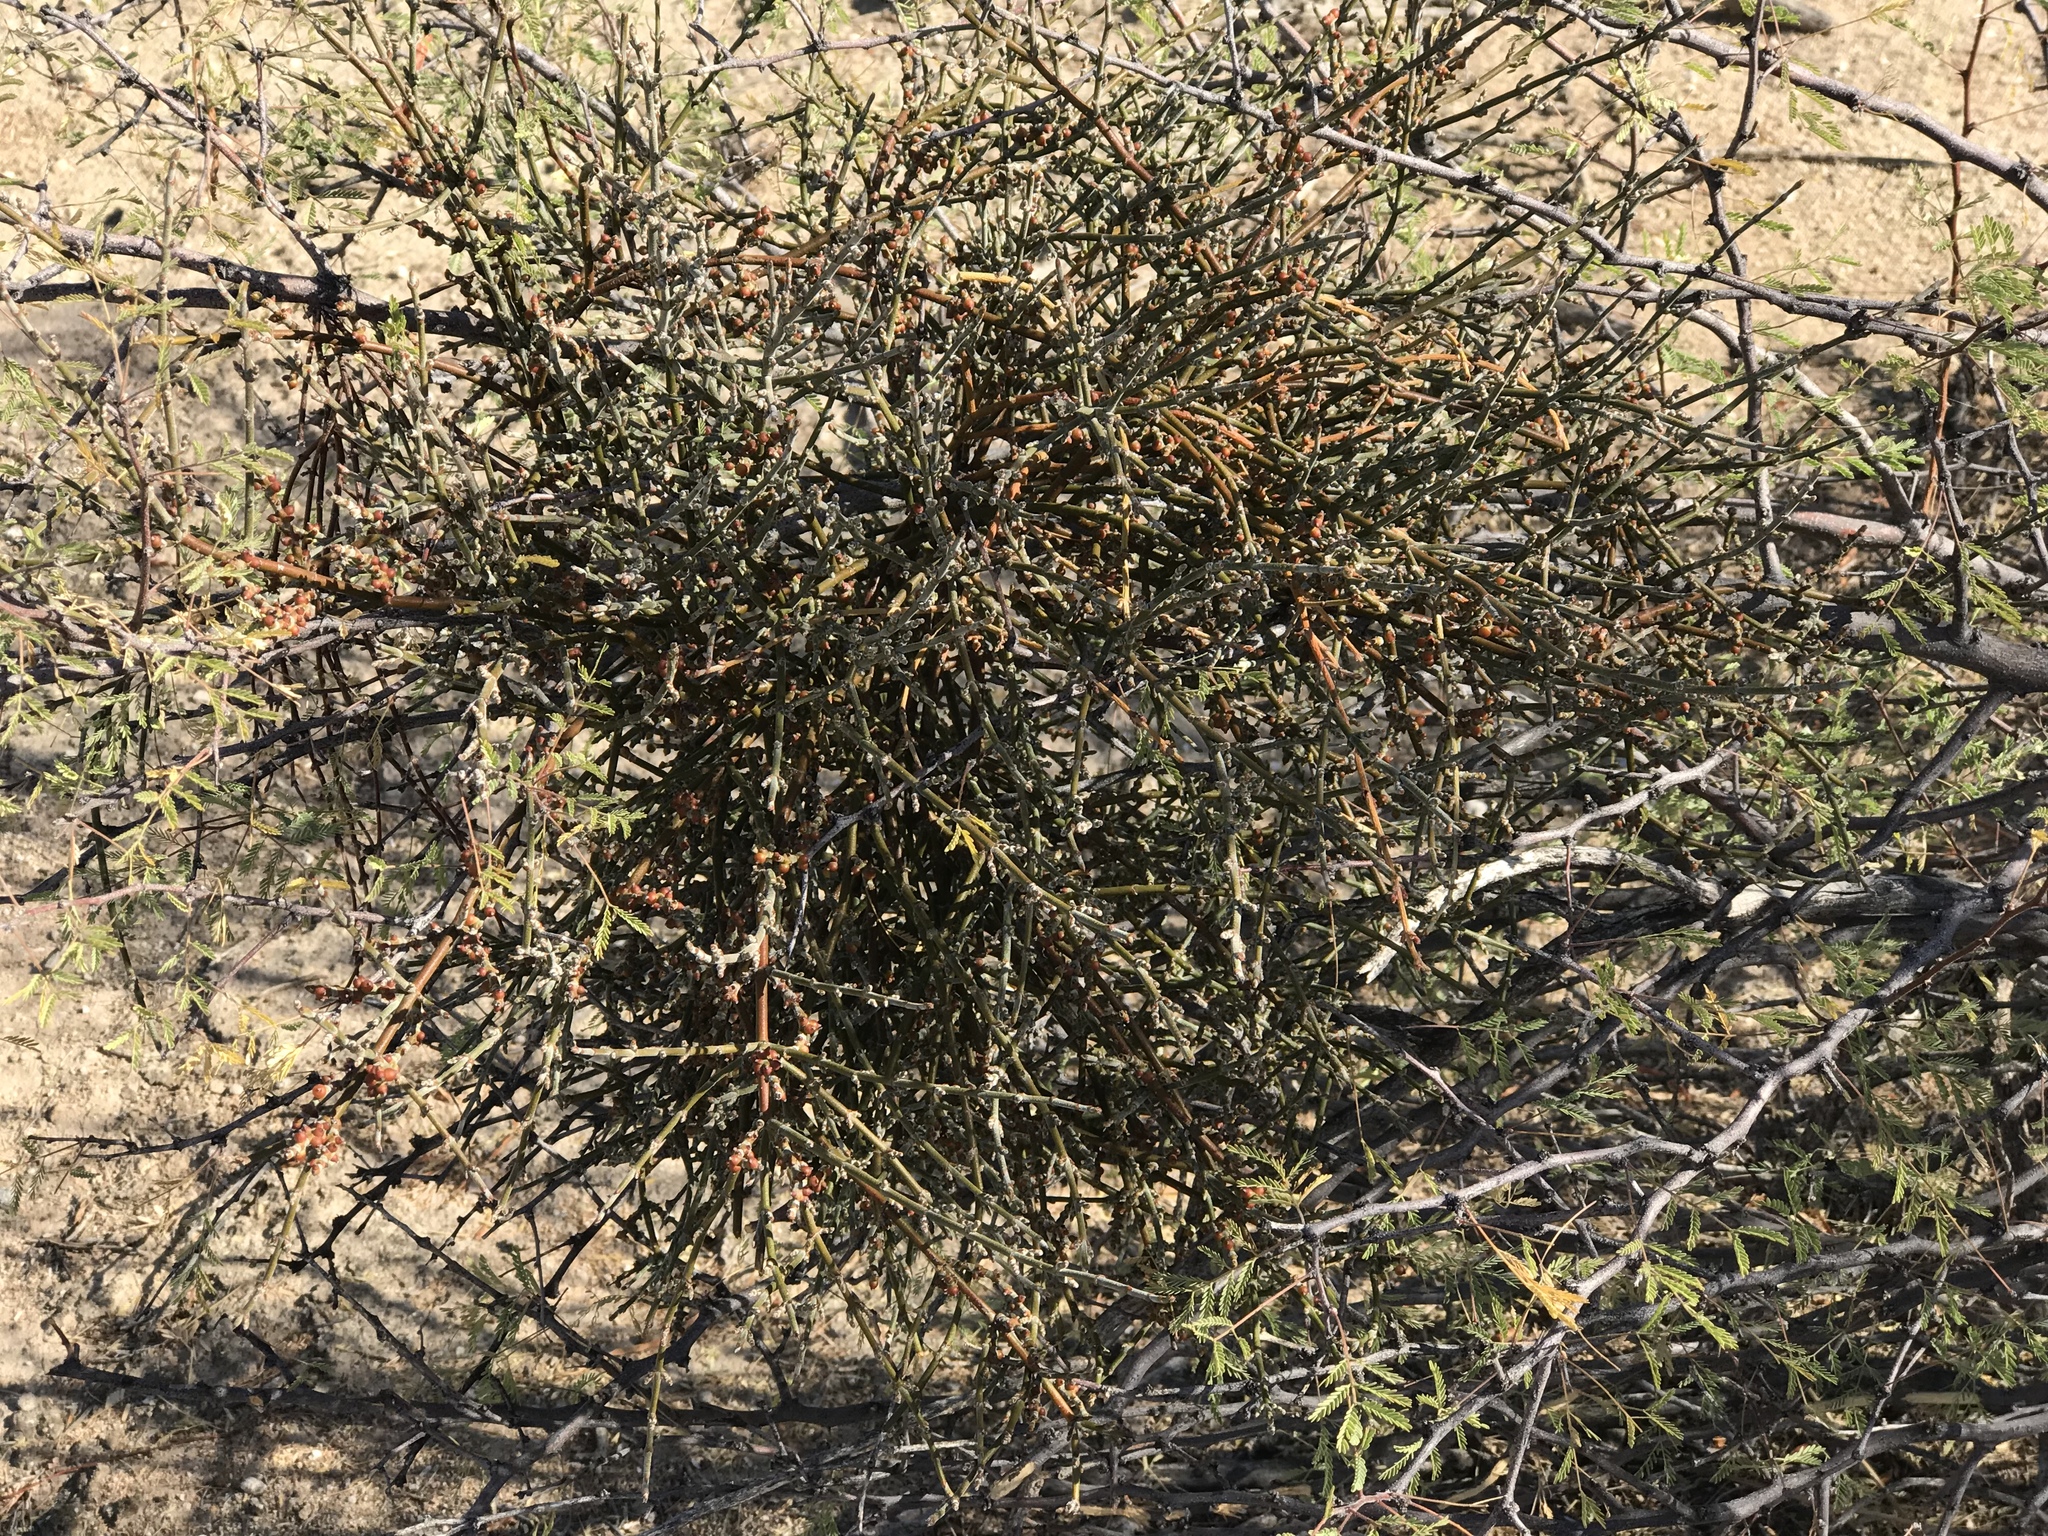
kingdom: Plantae
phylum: Tracheophyta
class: Magnoliopsida
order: Fabales
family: Fabaceae
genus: Vachellia
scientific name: Vachellia constricta
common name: Mescat acacia
